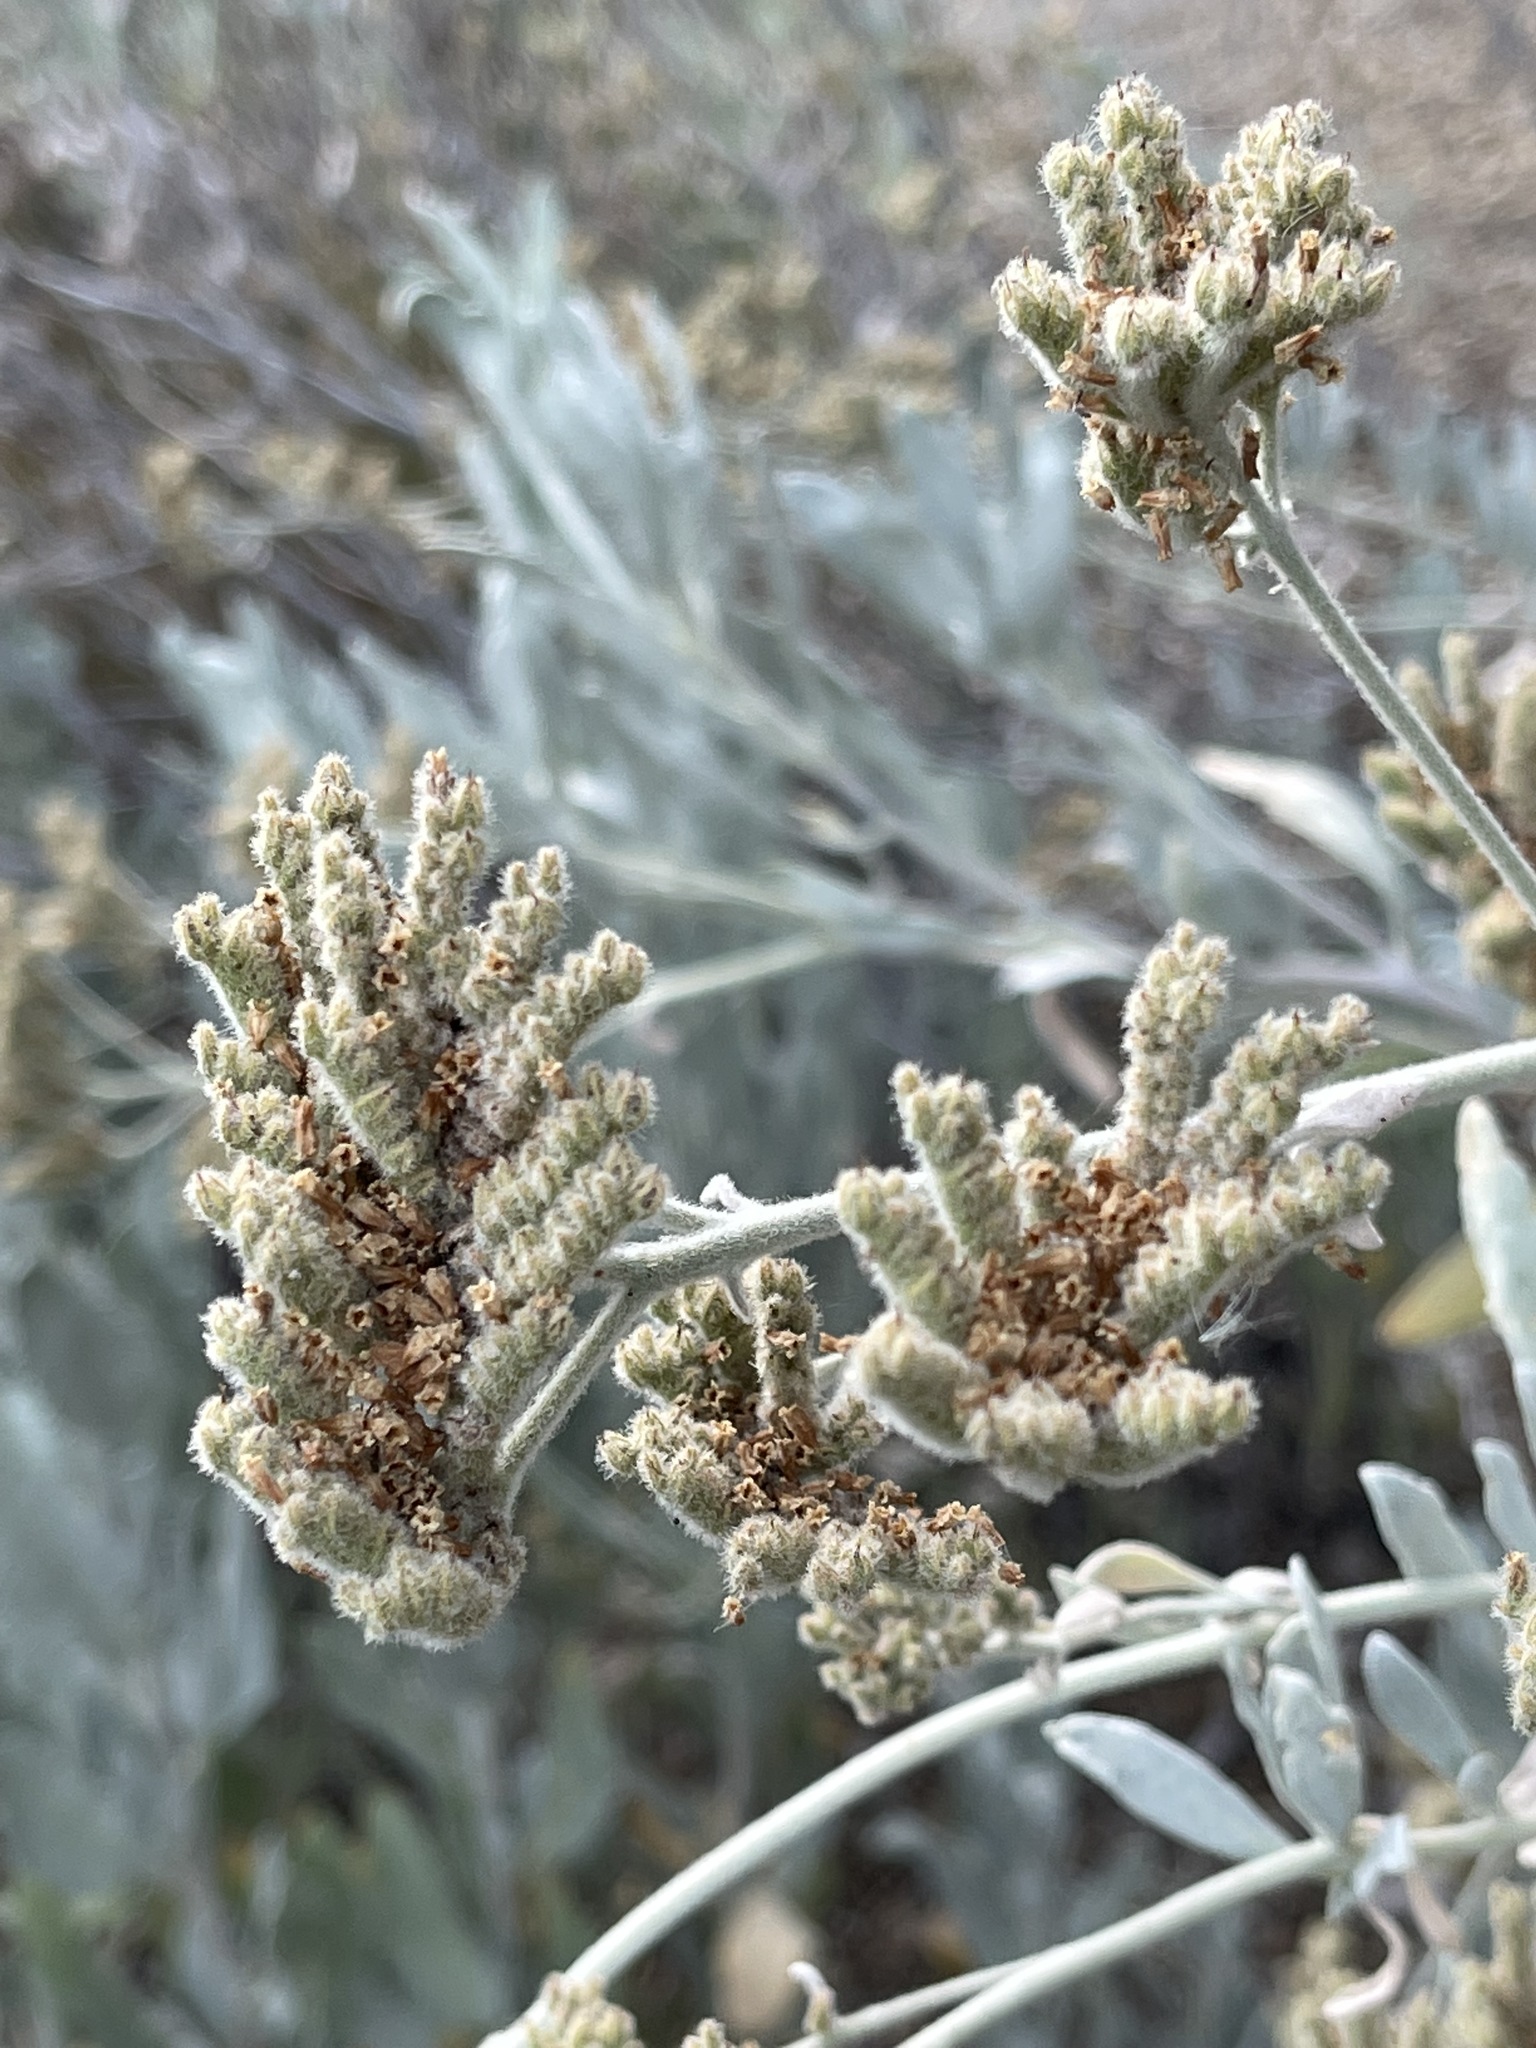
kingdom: Plantae
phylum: Tracheophyta
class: Magnoliopsida
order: Boraginales
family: Namaceae
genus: Eriodictyon
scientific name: Eriodictyon tomentosum
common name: Woolly yerba-santa
